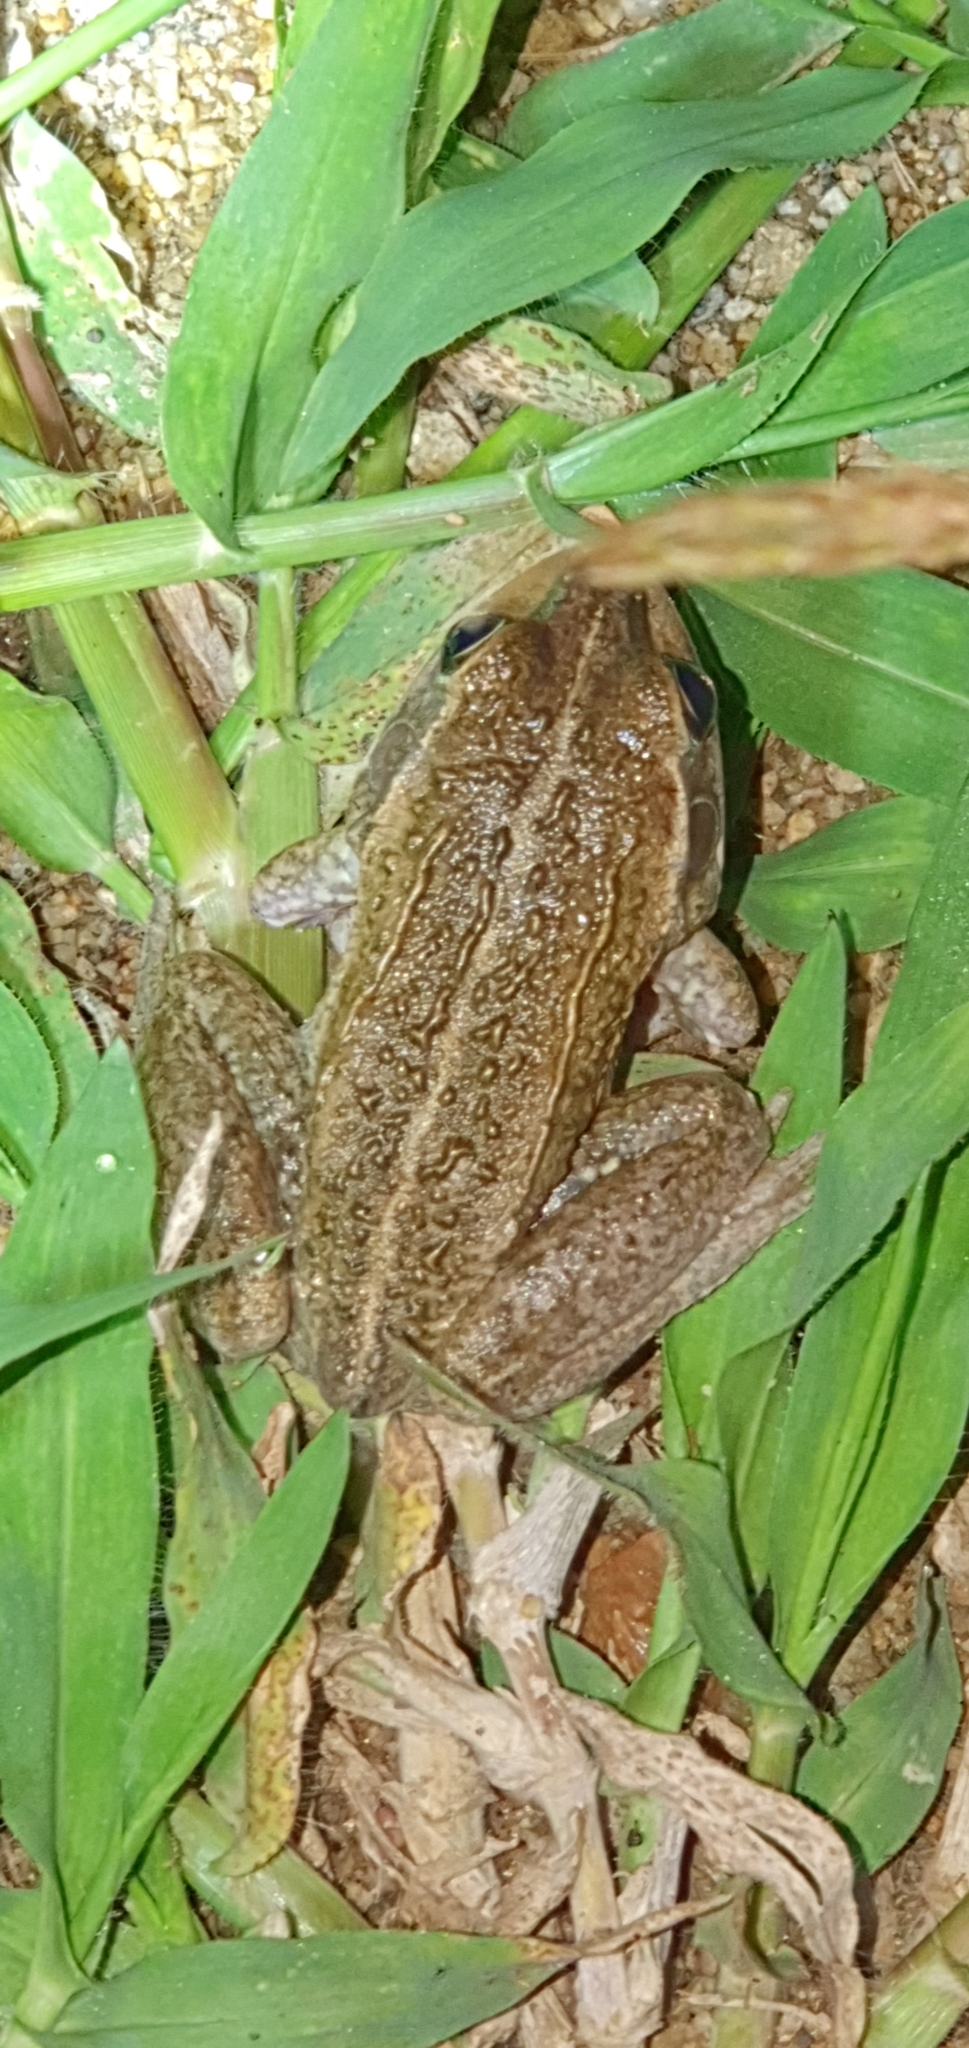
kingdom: Animalia
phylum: Chordata
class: Amphibia
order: Anura
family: Pelodryadidae
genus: Ranoidea
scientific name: Ranoidea alboguttata
